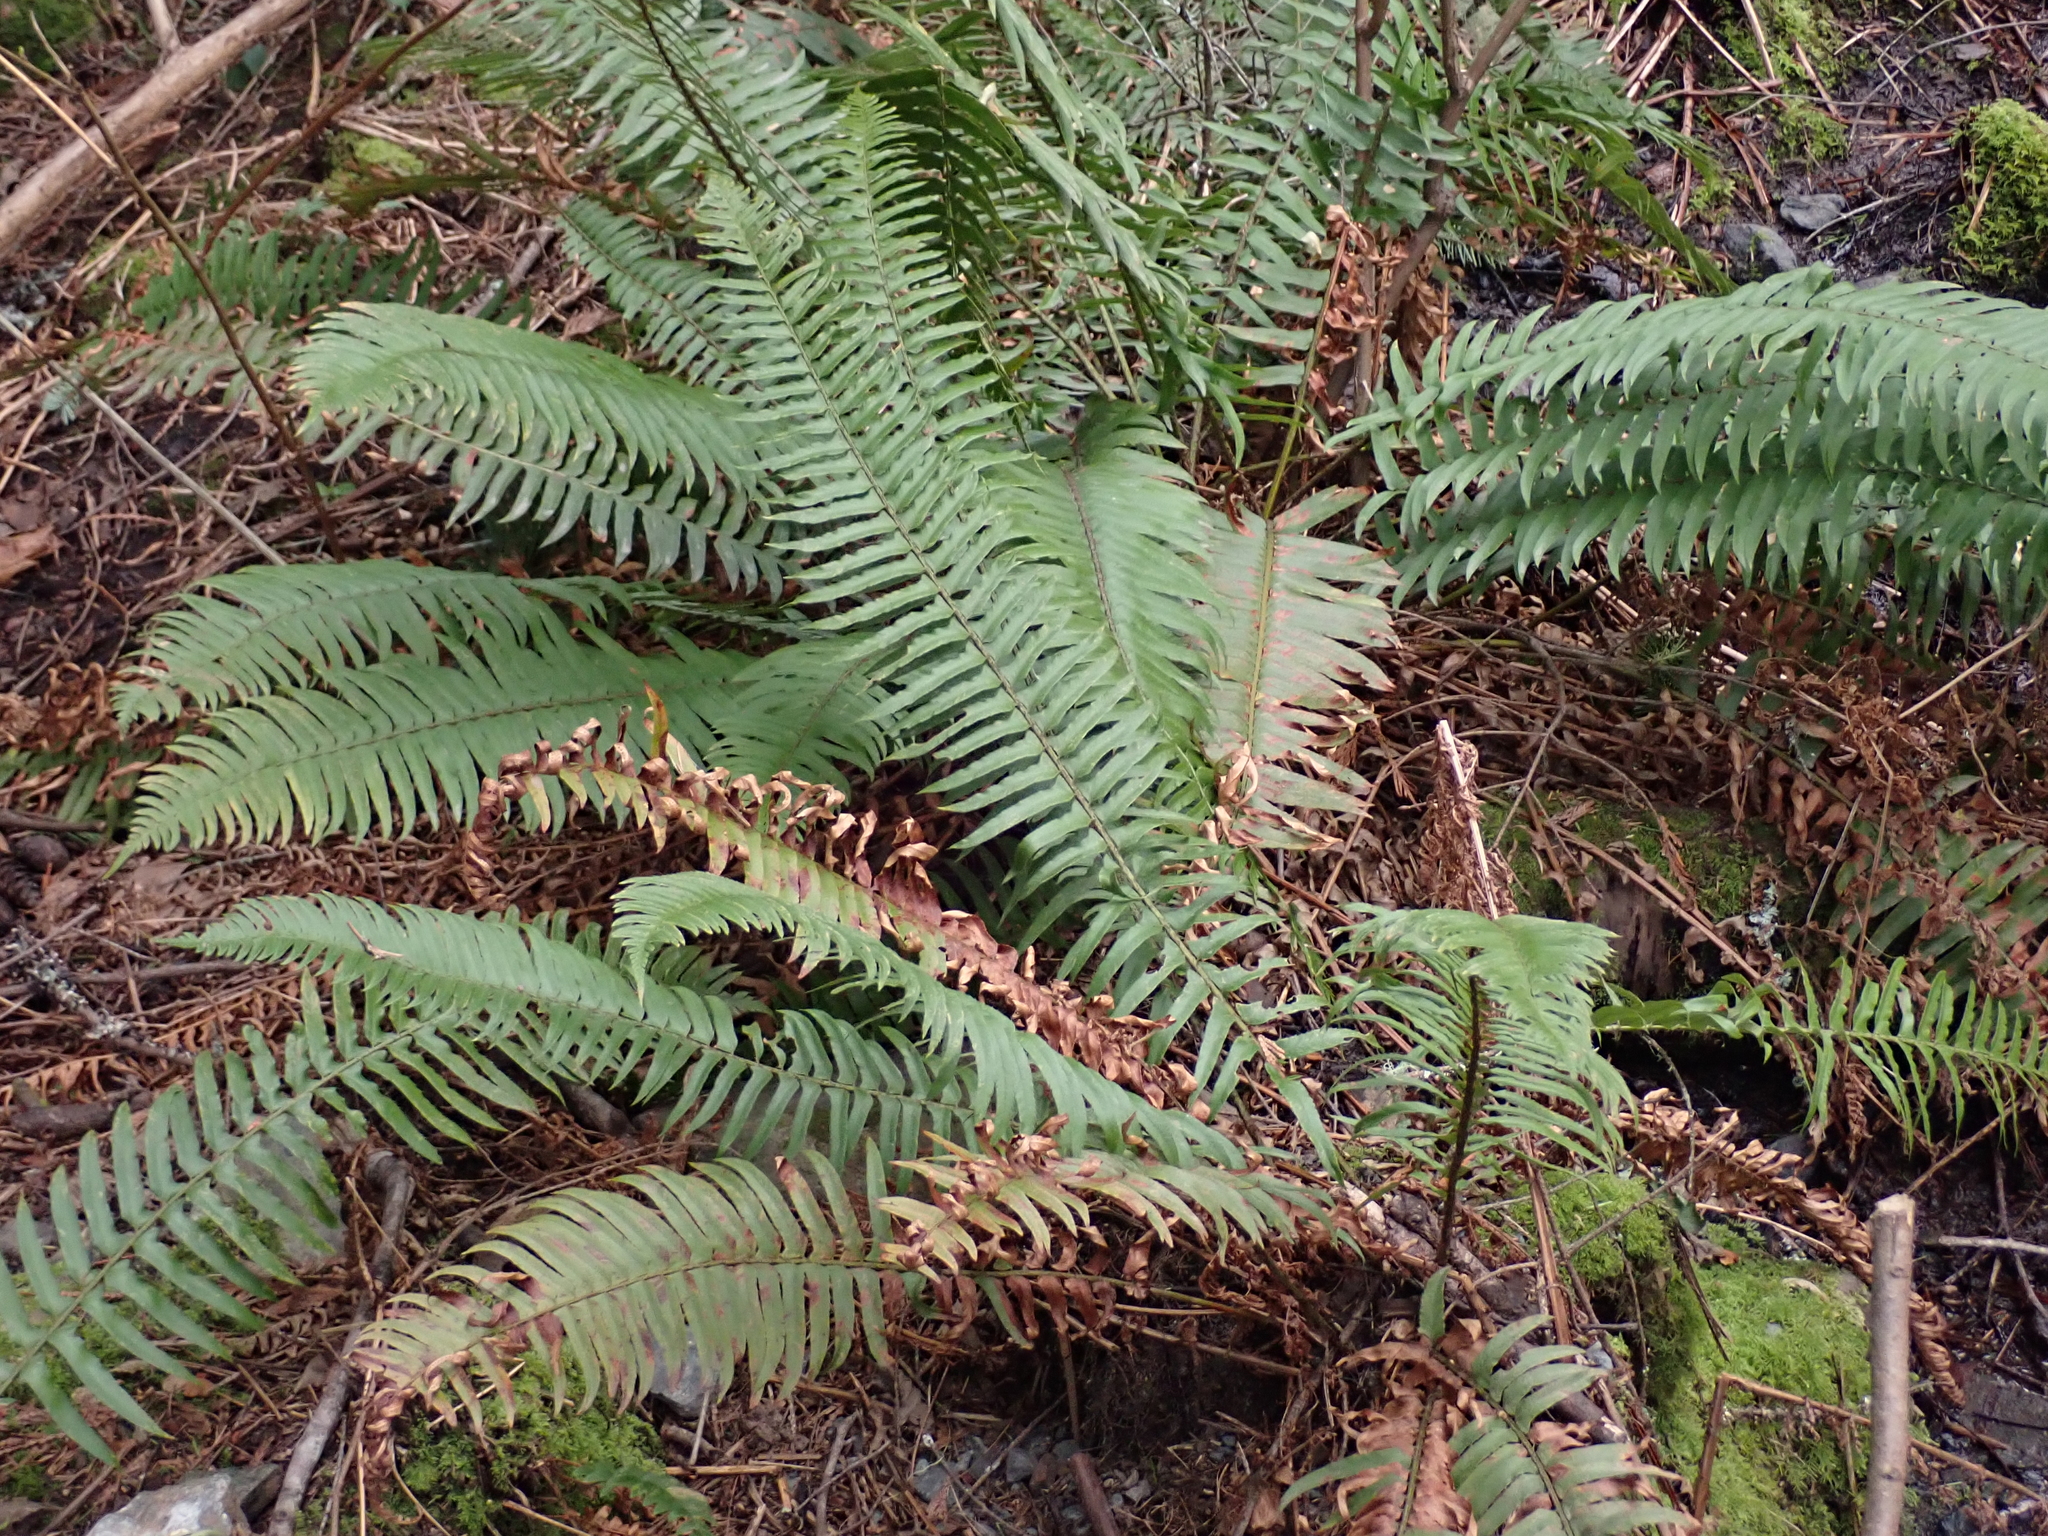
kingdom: Plantae
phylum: Tracheophyta
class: Polypodiopsida
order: Polypodiales
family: Dryopteridaceae
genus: Polystichum
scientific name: Polystichum munitum
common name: Western sword-fern
